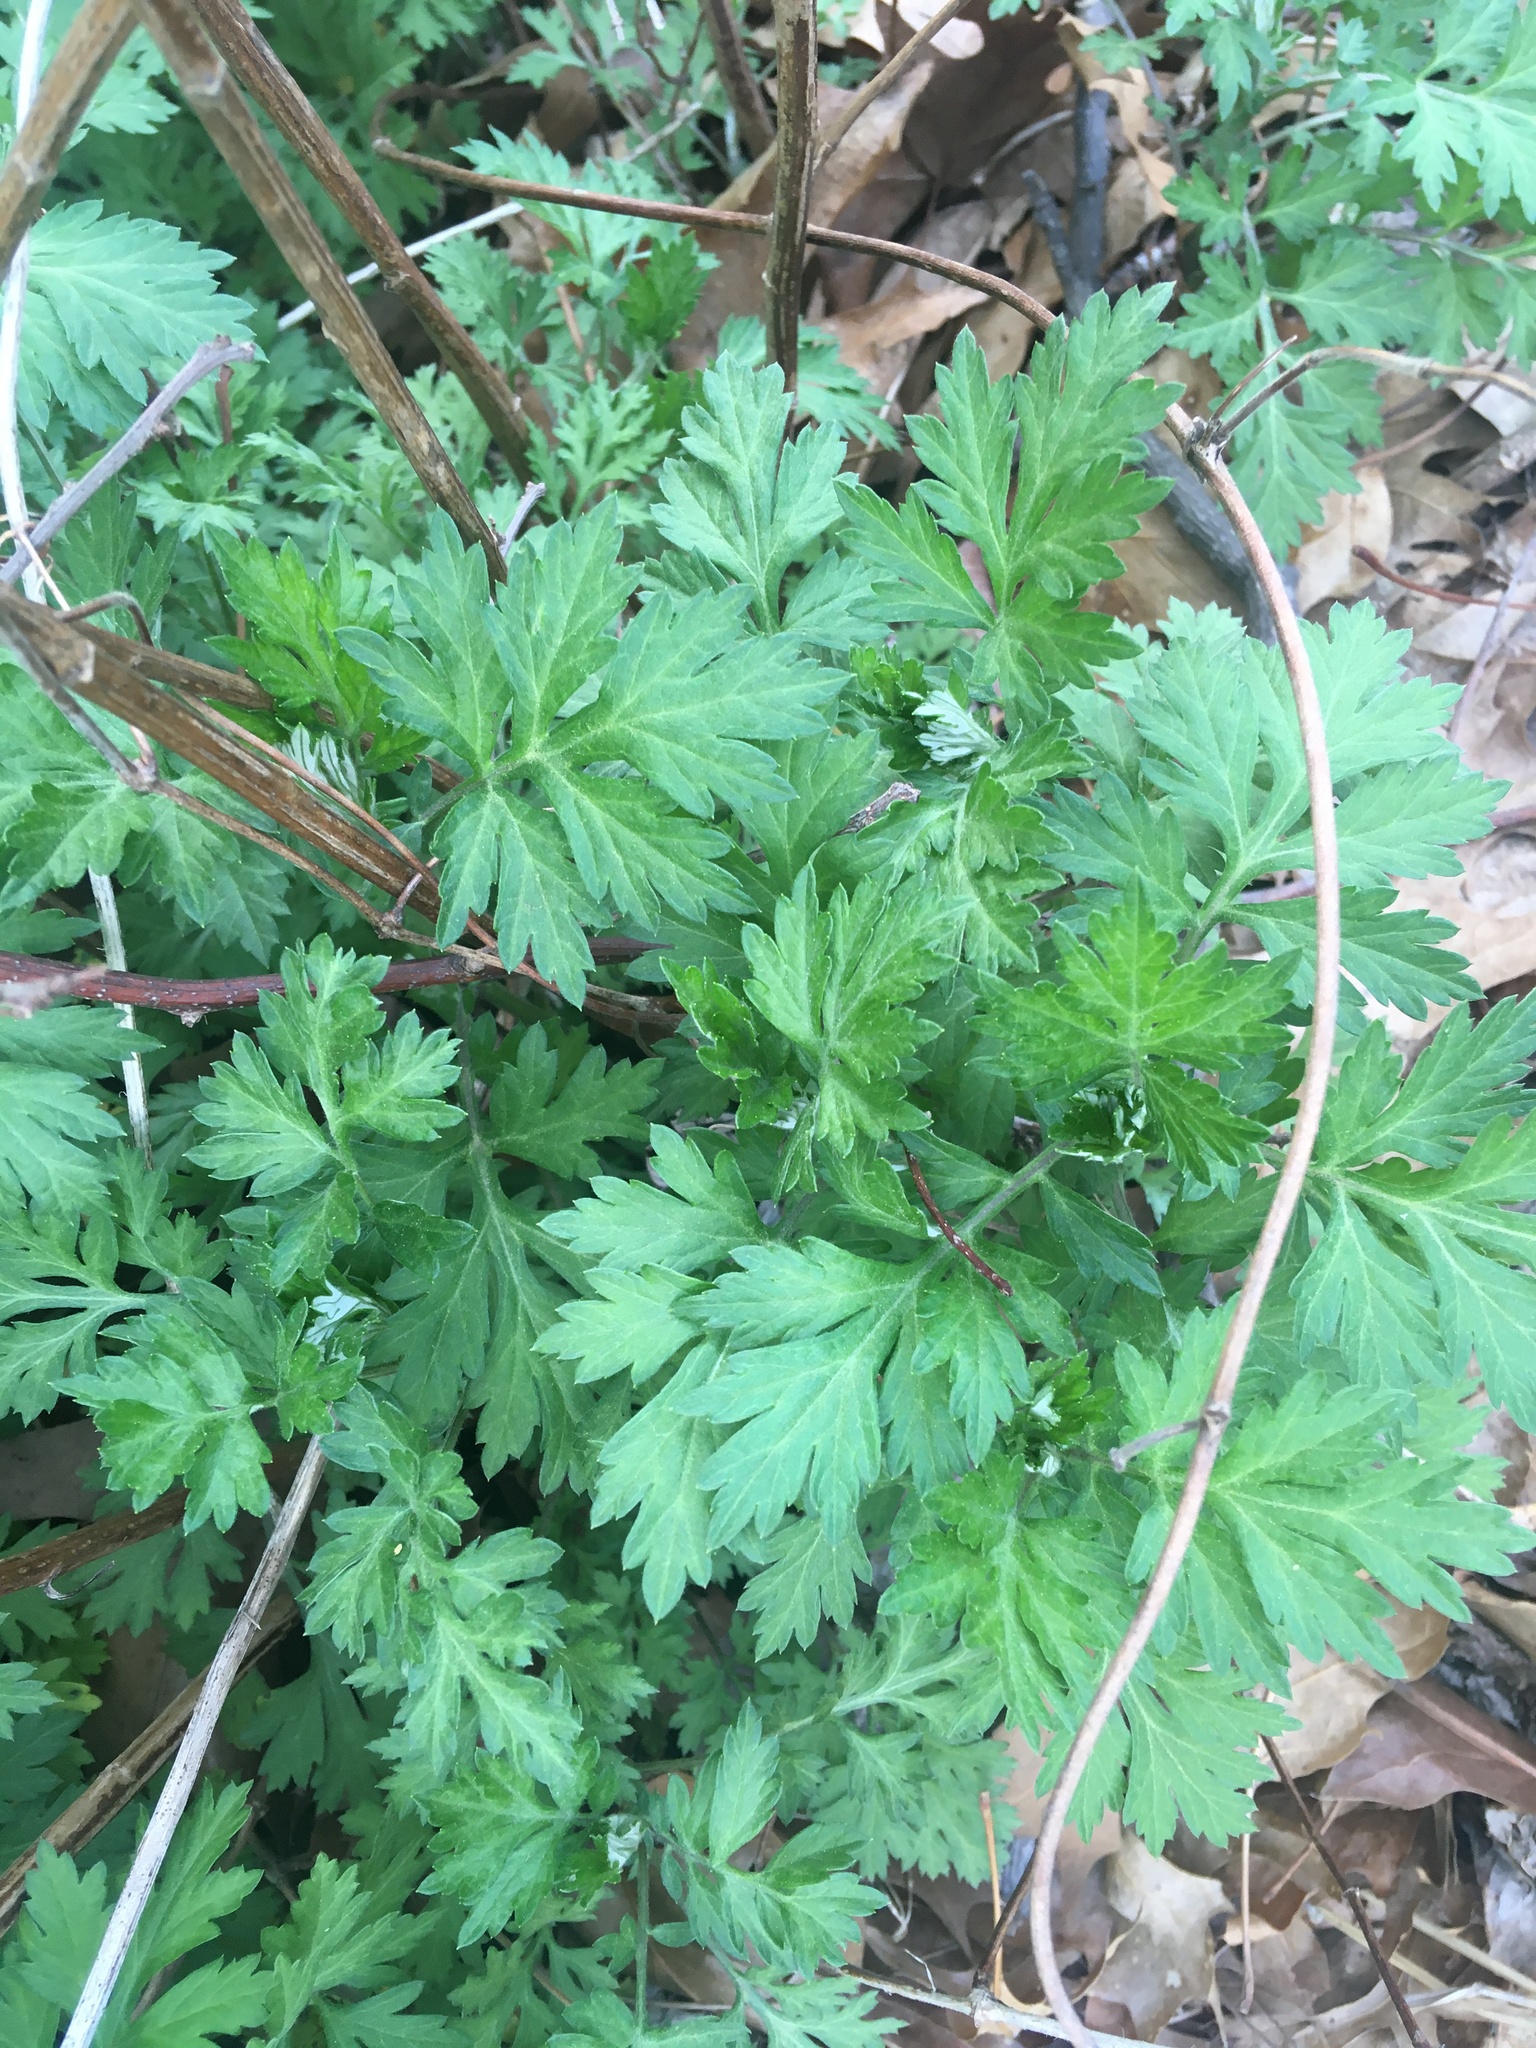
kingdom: Plantae
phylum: Tracheophyta
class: Magnoliopsida
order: Asterales
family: Asteraceae
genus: Artemisia
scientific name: Artemisia vulgaris
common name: Mugwort
